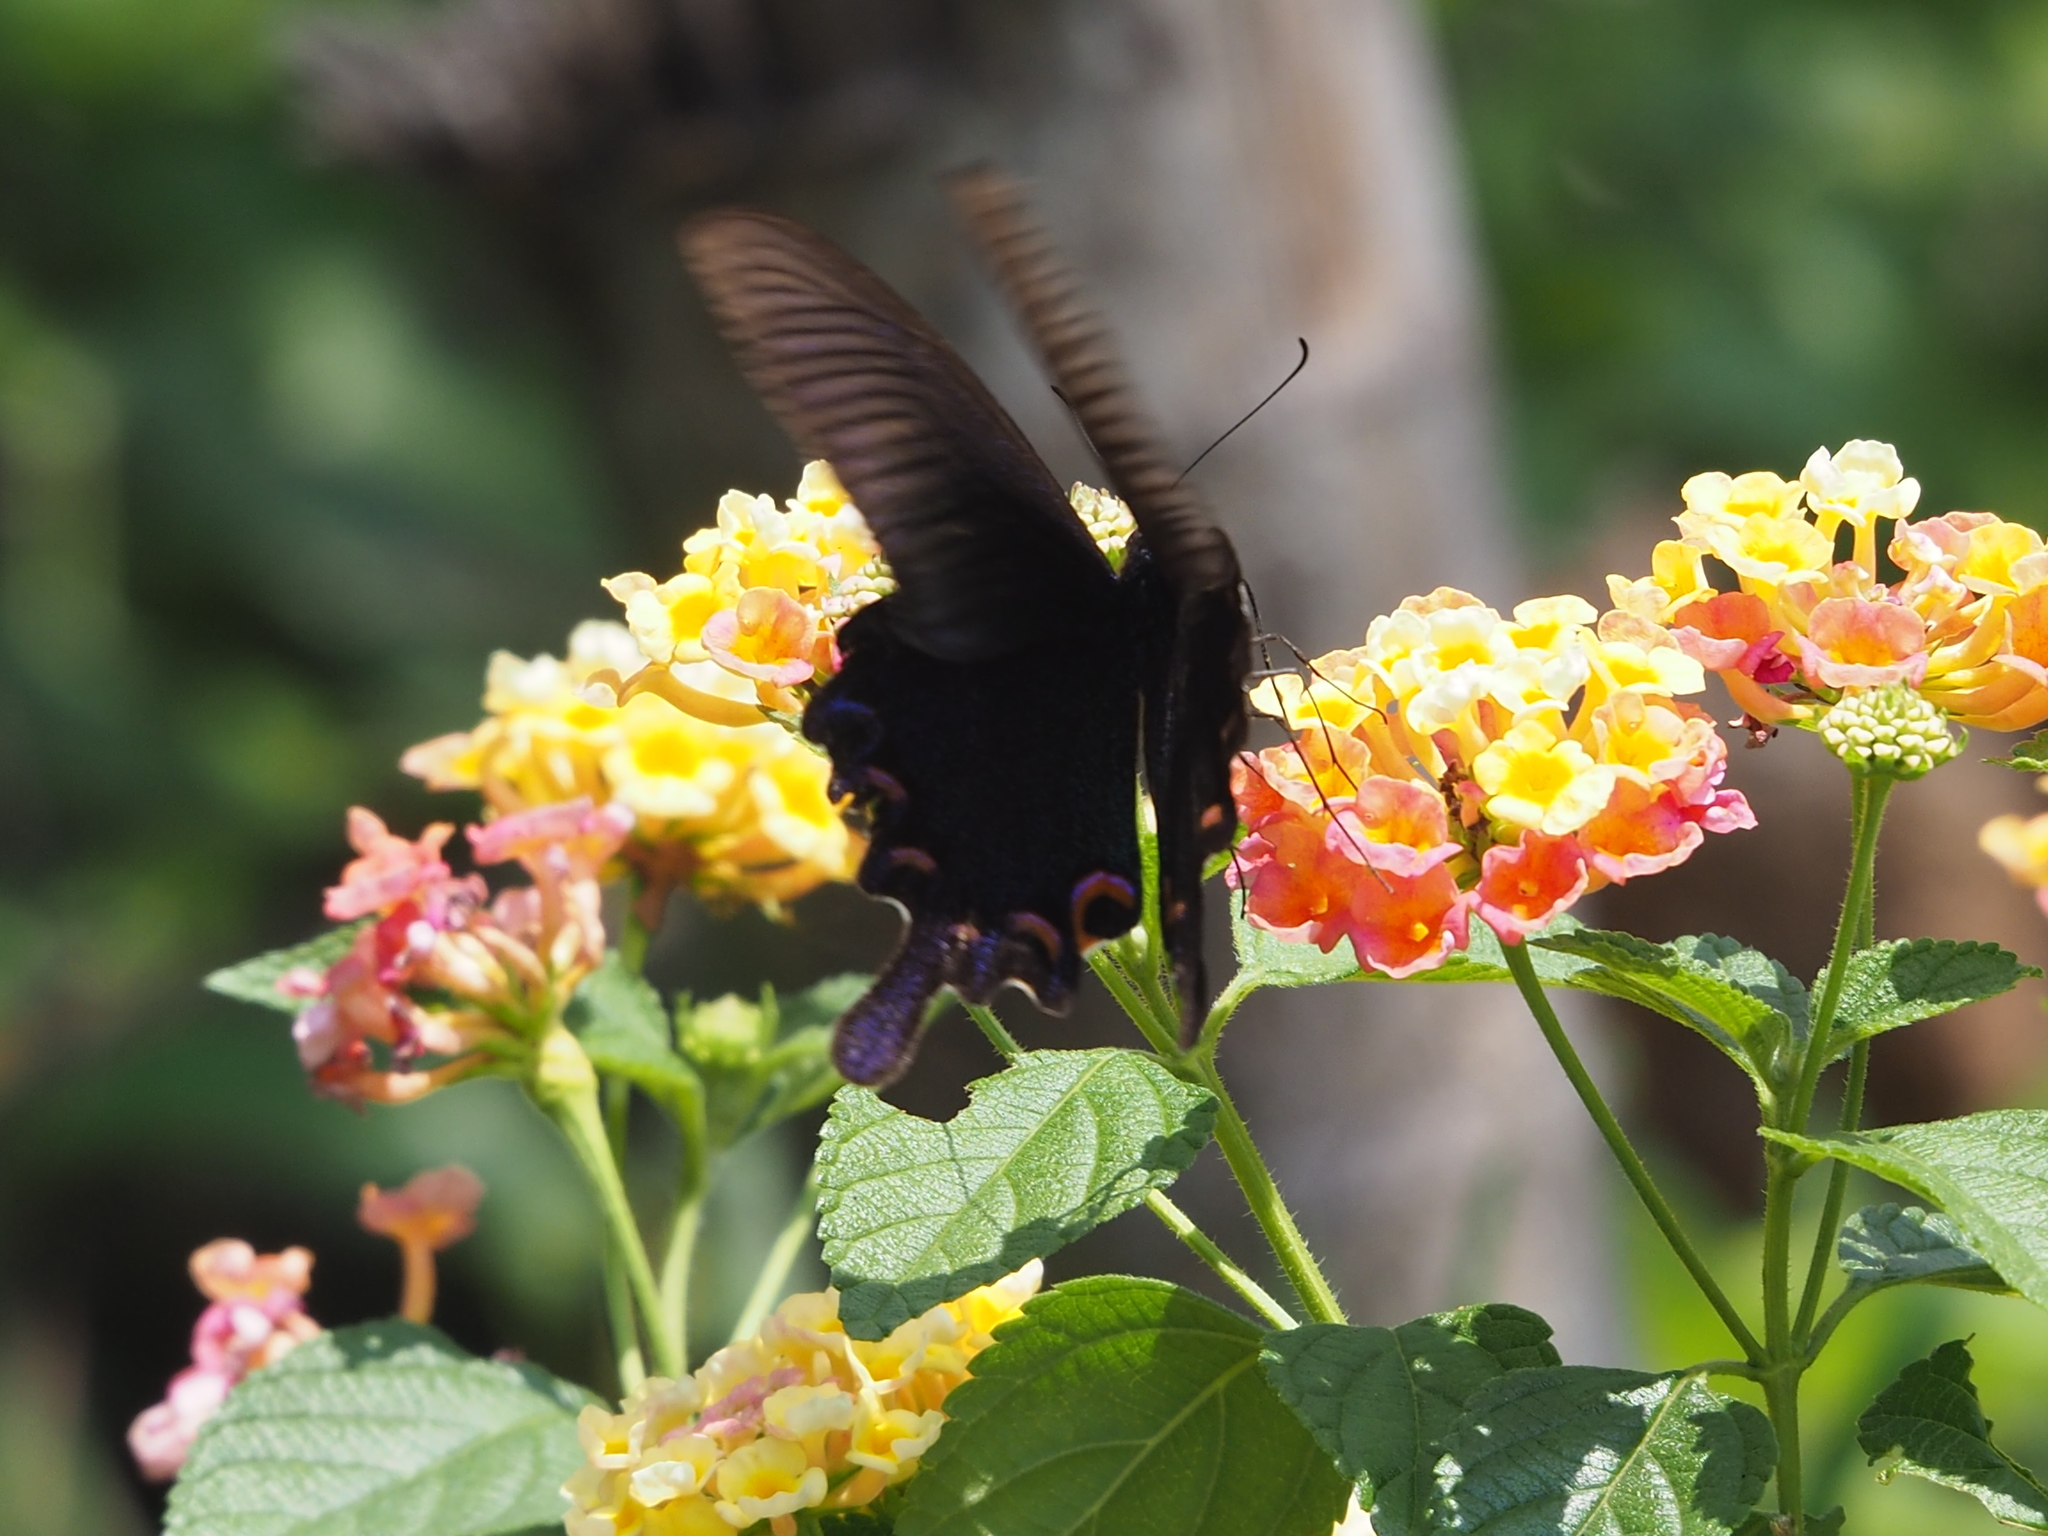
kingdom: Animalia
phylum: Arthropoda
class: Insecta
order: Lepidoptera
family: Papilionidae
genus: Papilio
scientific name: Papilio bianor
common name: Common peacock
